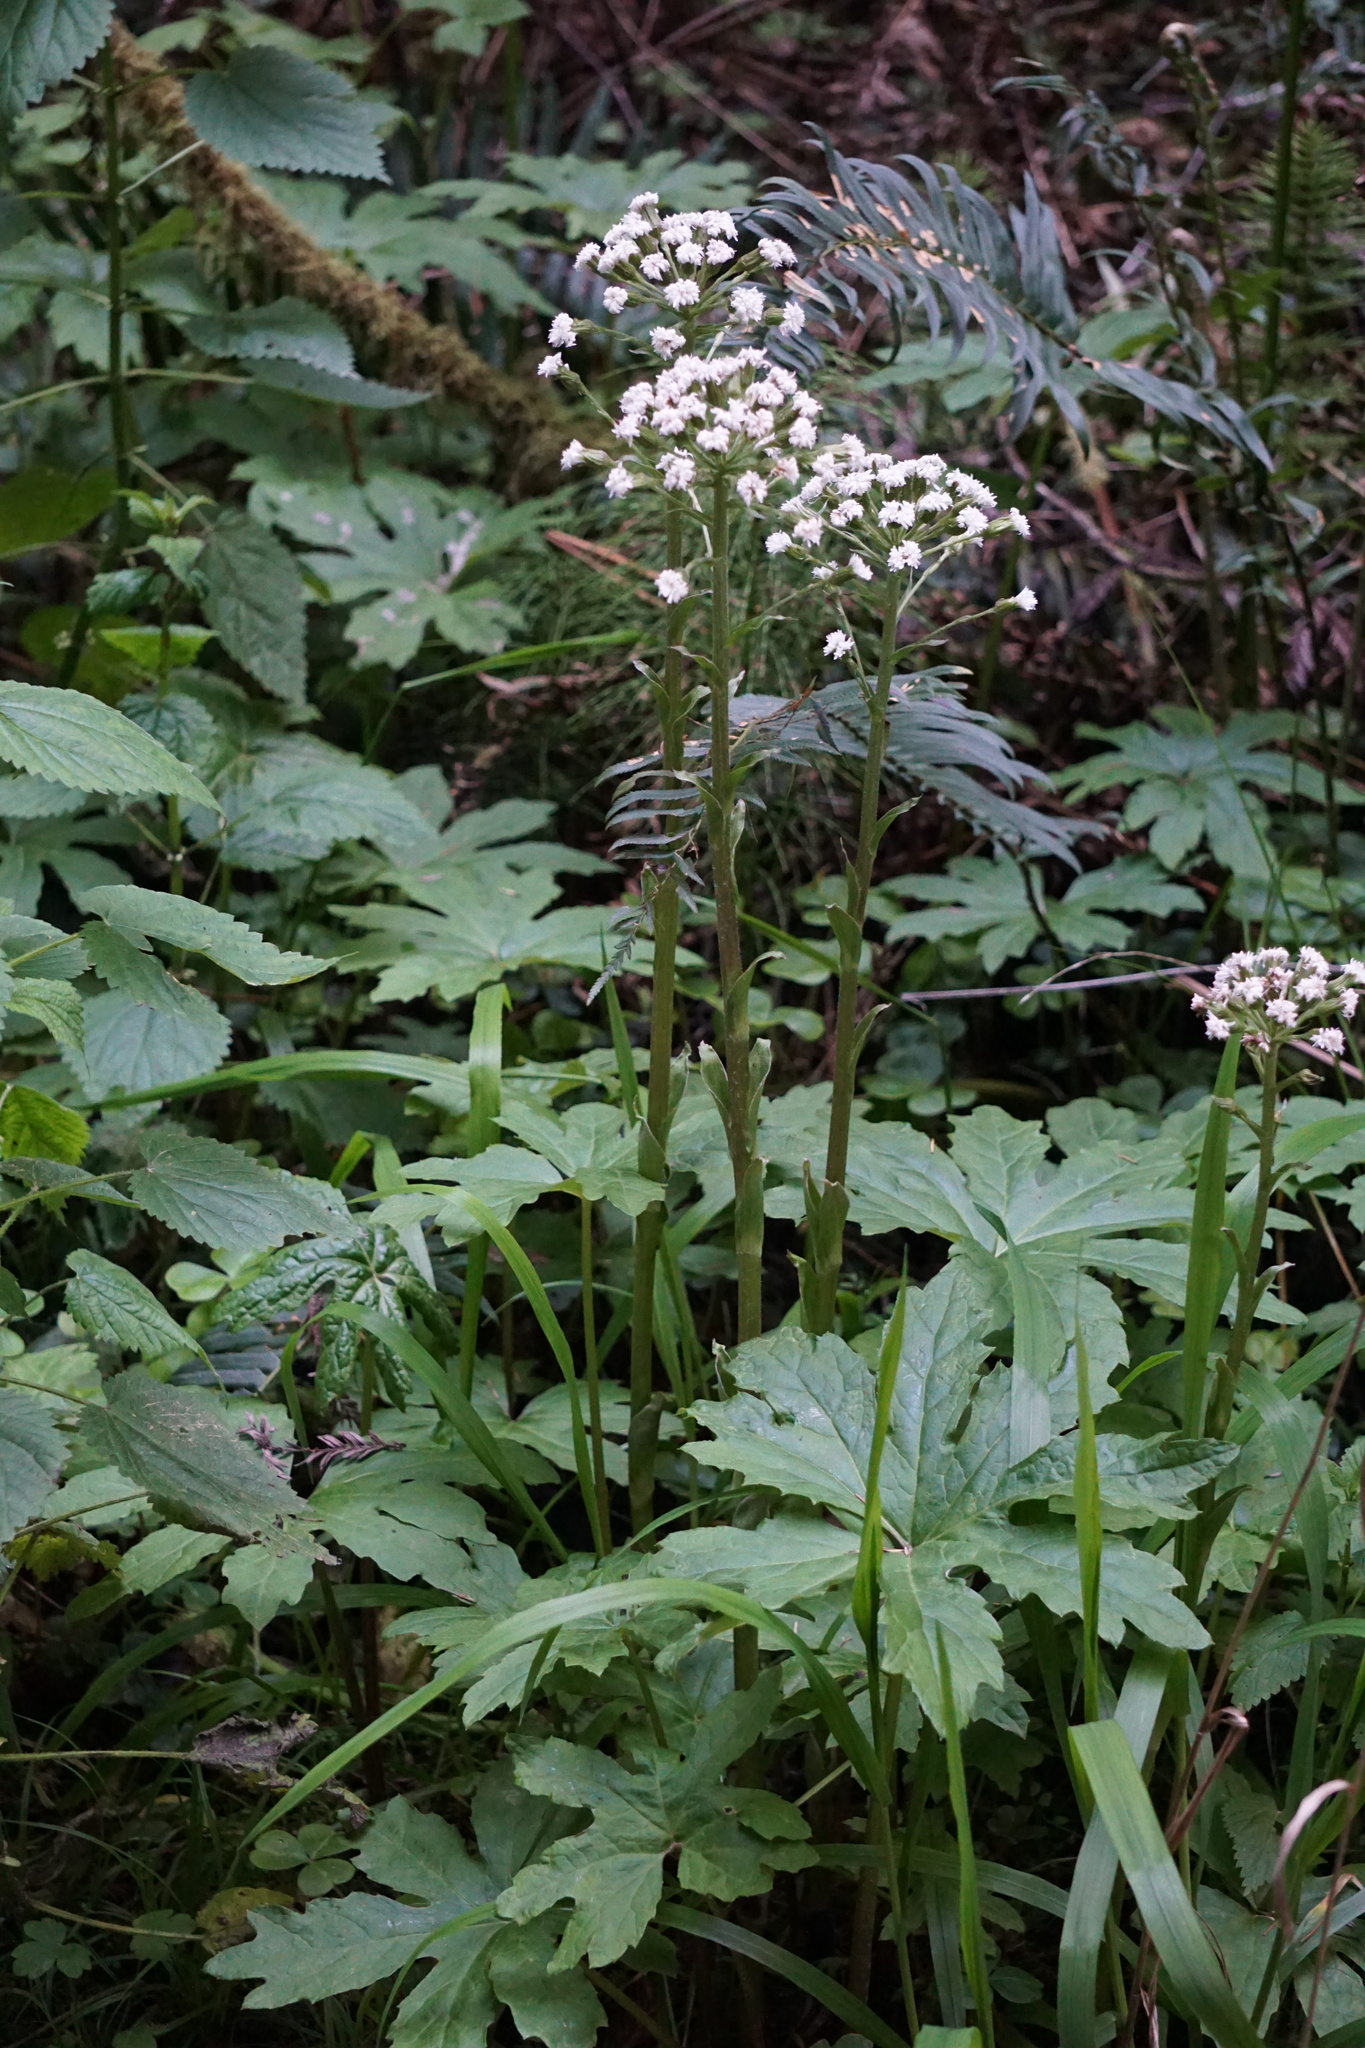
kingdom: Plantae
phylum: Tracheophyta
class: Magnoliopsida
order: Asterales
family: Asteraceae
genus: Petasites
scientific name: Petasites frigidus
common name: Arctic butterbur
